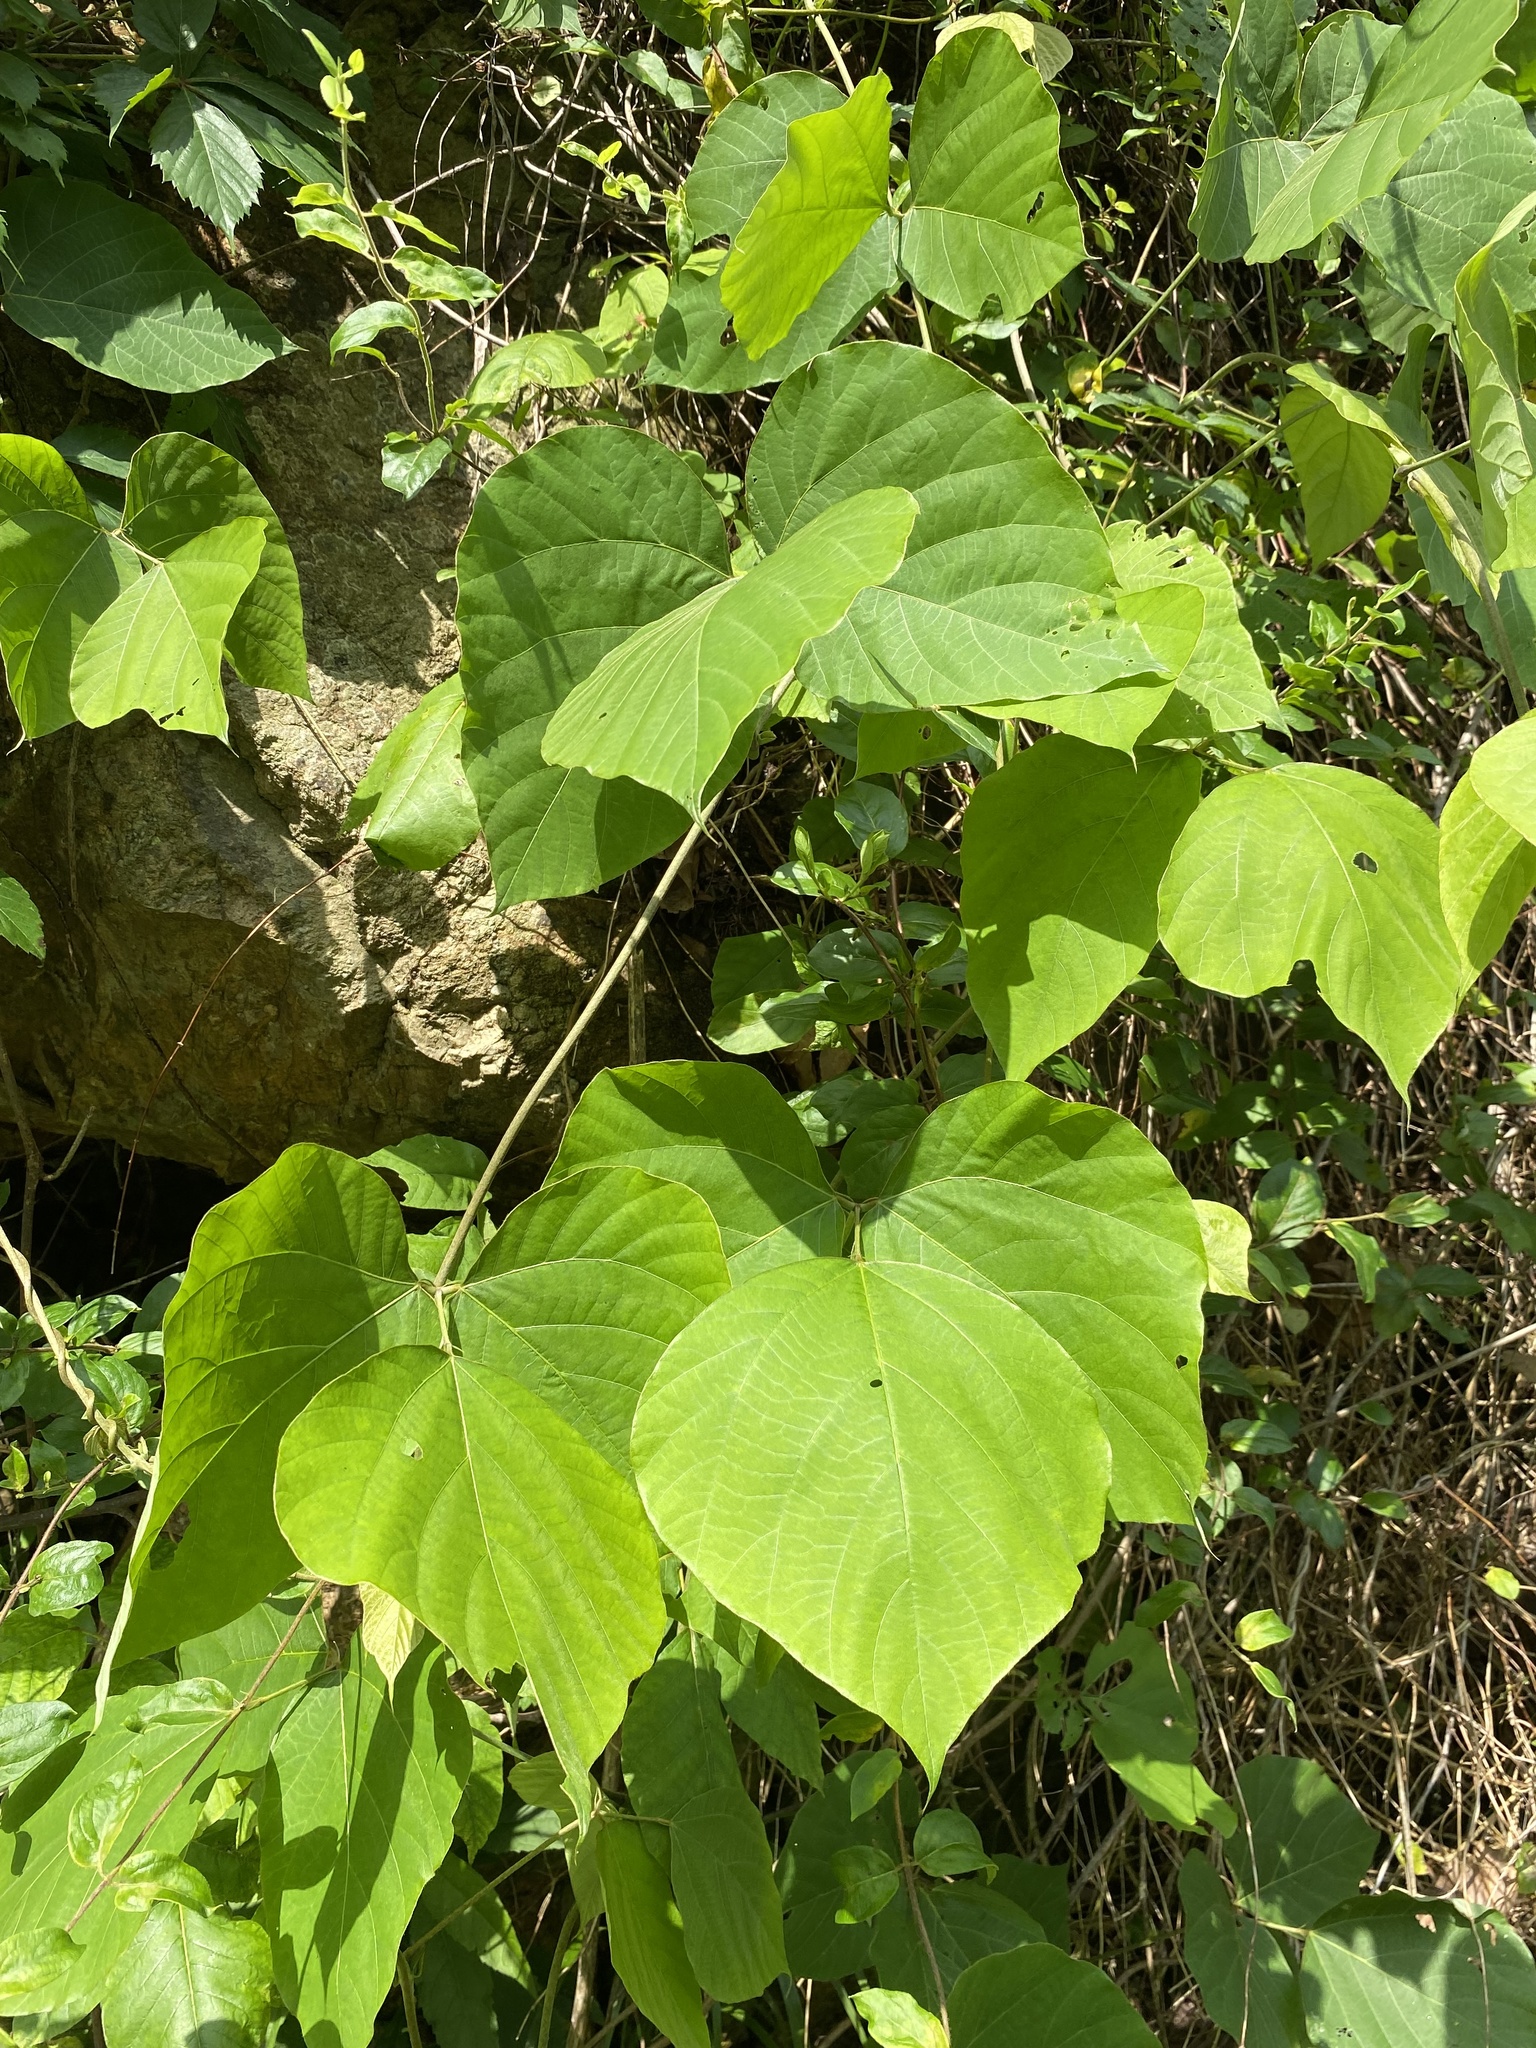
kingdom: Plantae
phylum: Tracheophyta
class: Magnoliopsida
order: Fabales
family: Fabaceae
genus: Pueraria
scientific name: Pueraria montana
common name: Kudzu
